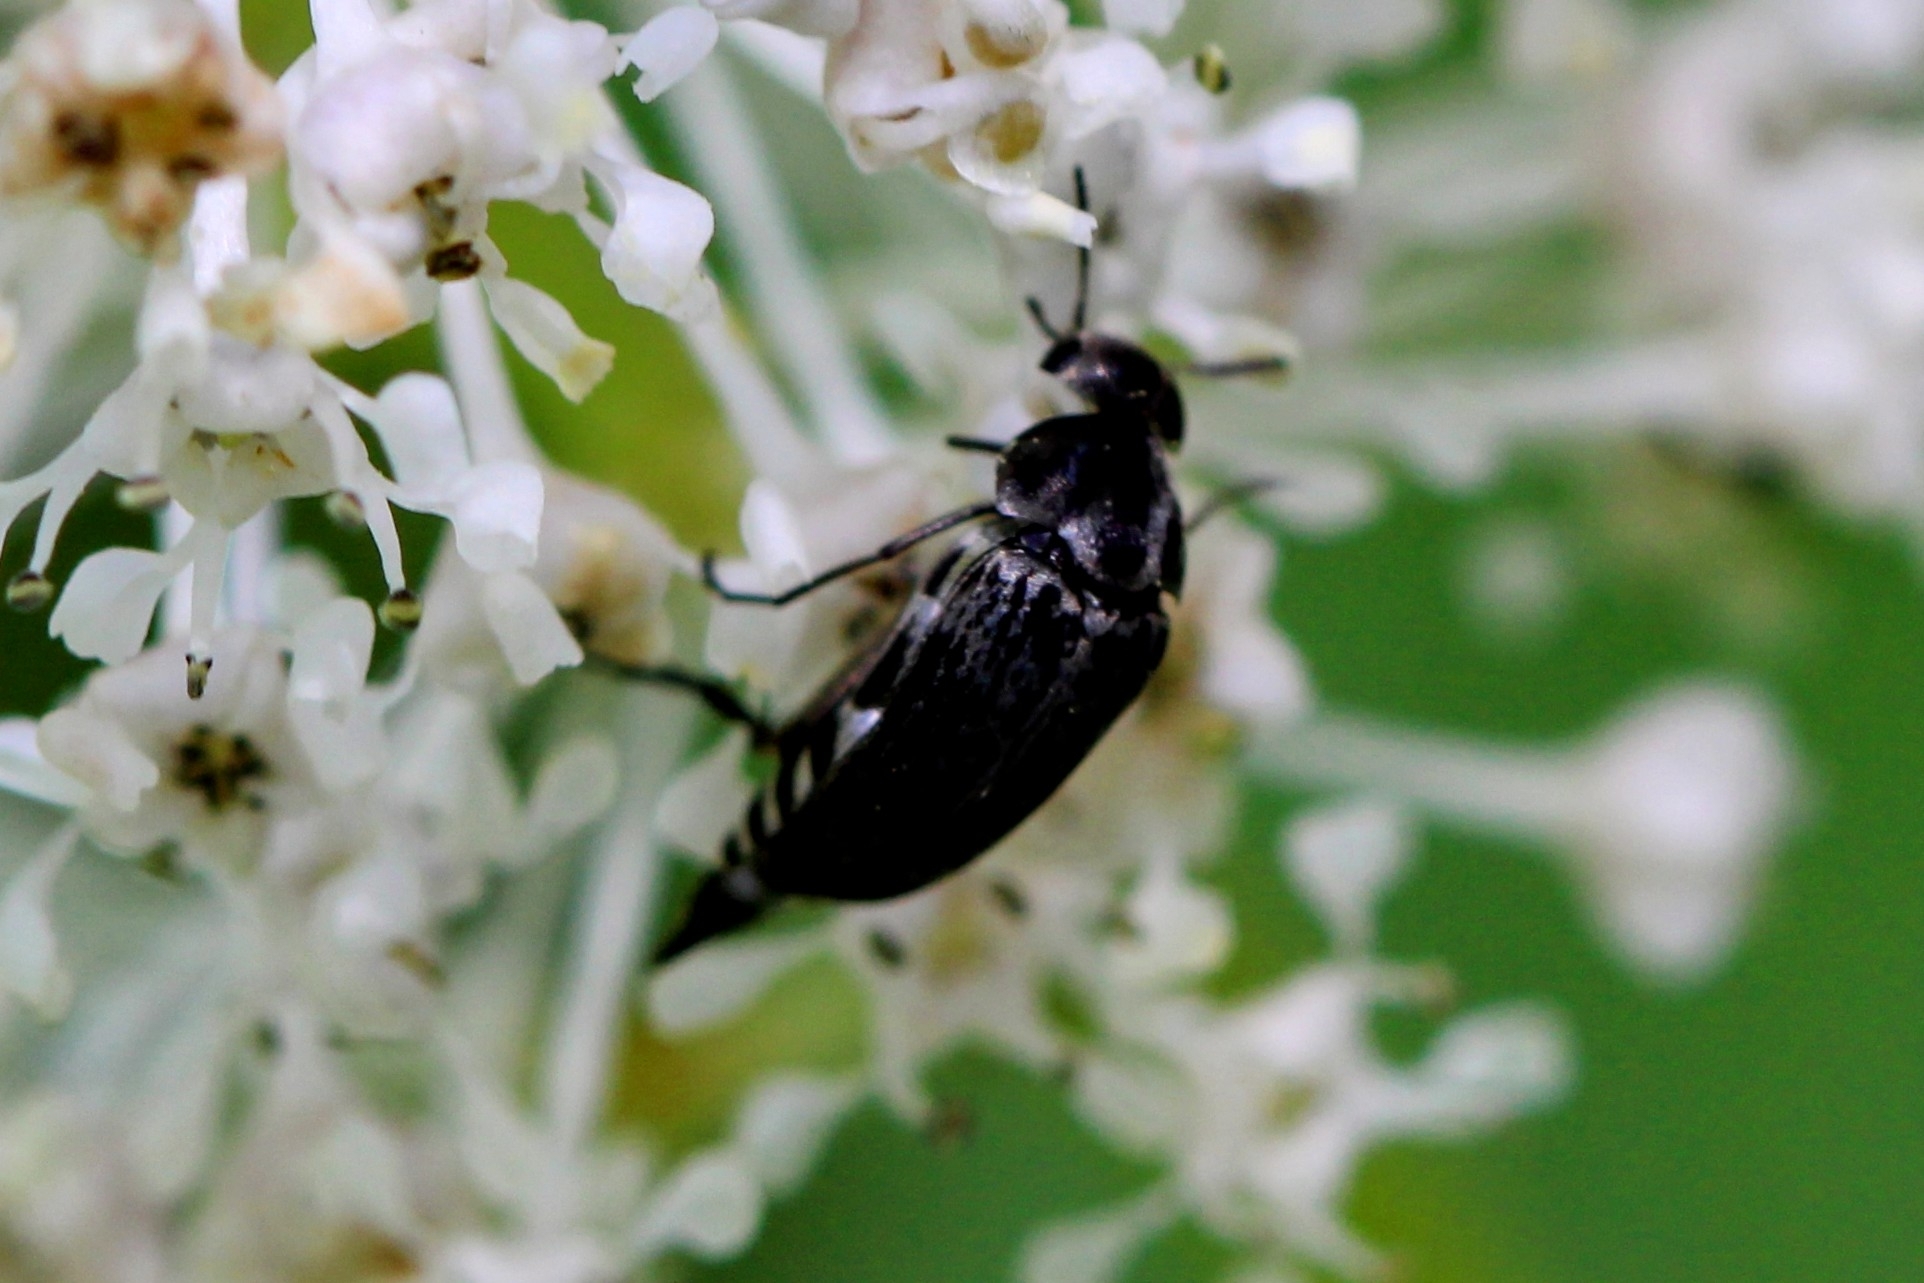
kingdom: Animalia
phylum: Arthropoda
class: Insecta
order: Coleoptera
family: Mordellidae
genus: Mordella
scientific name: Mordella marginata
